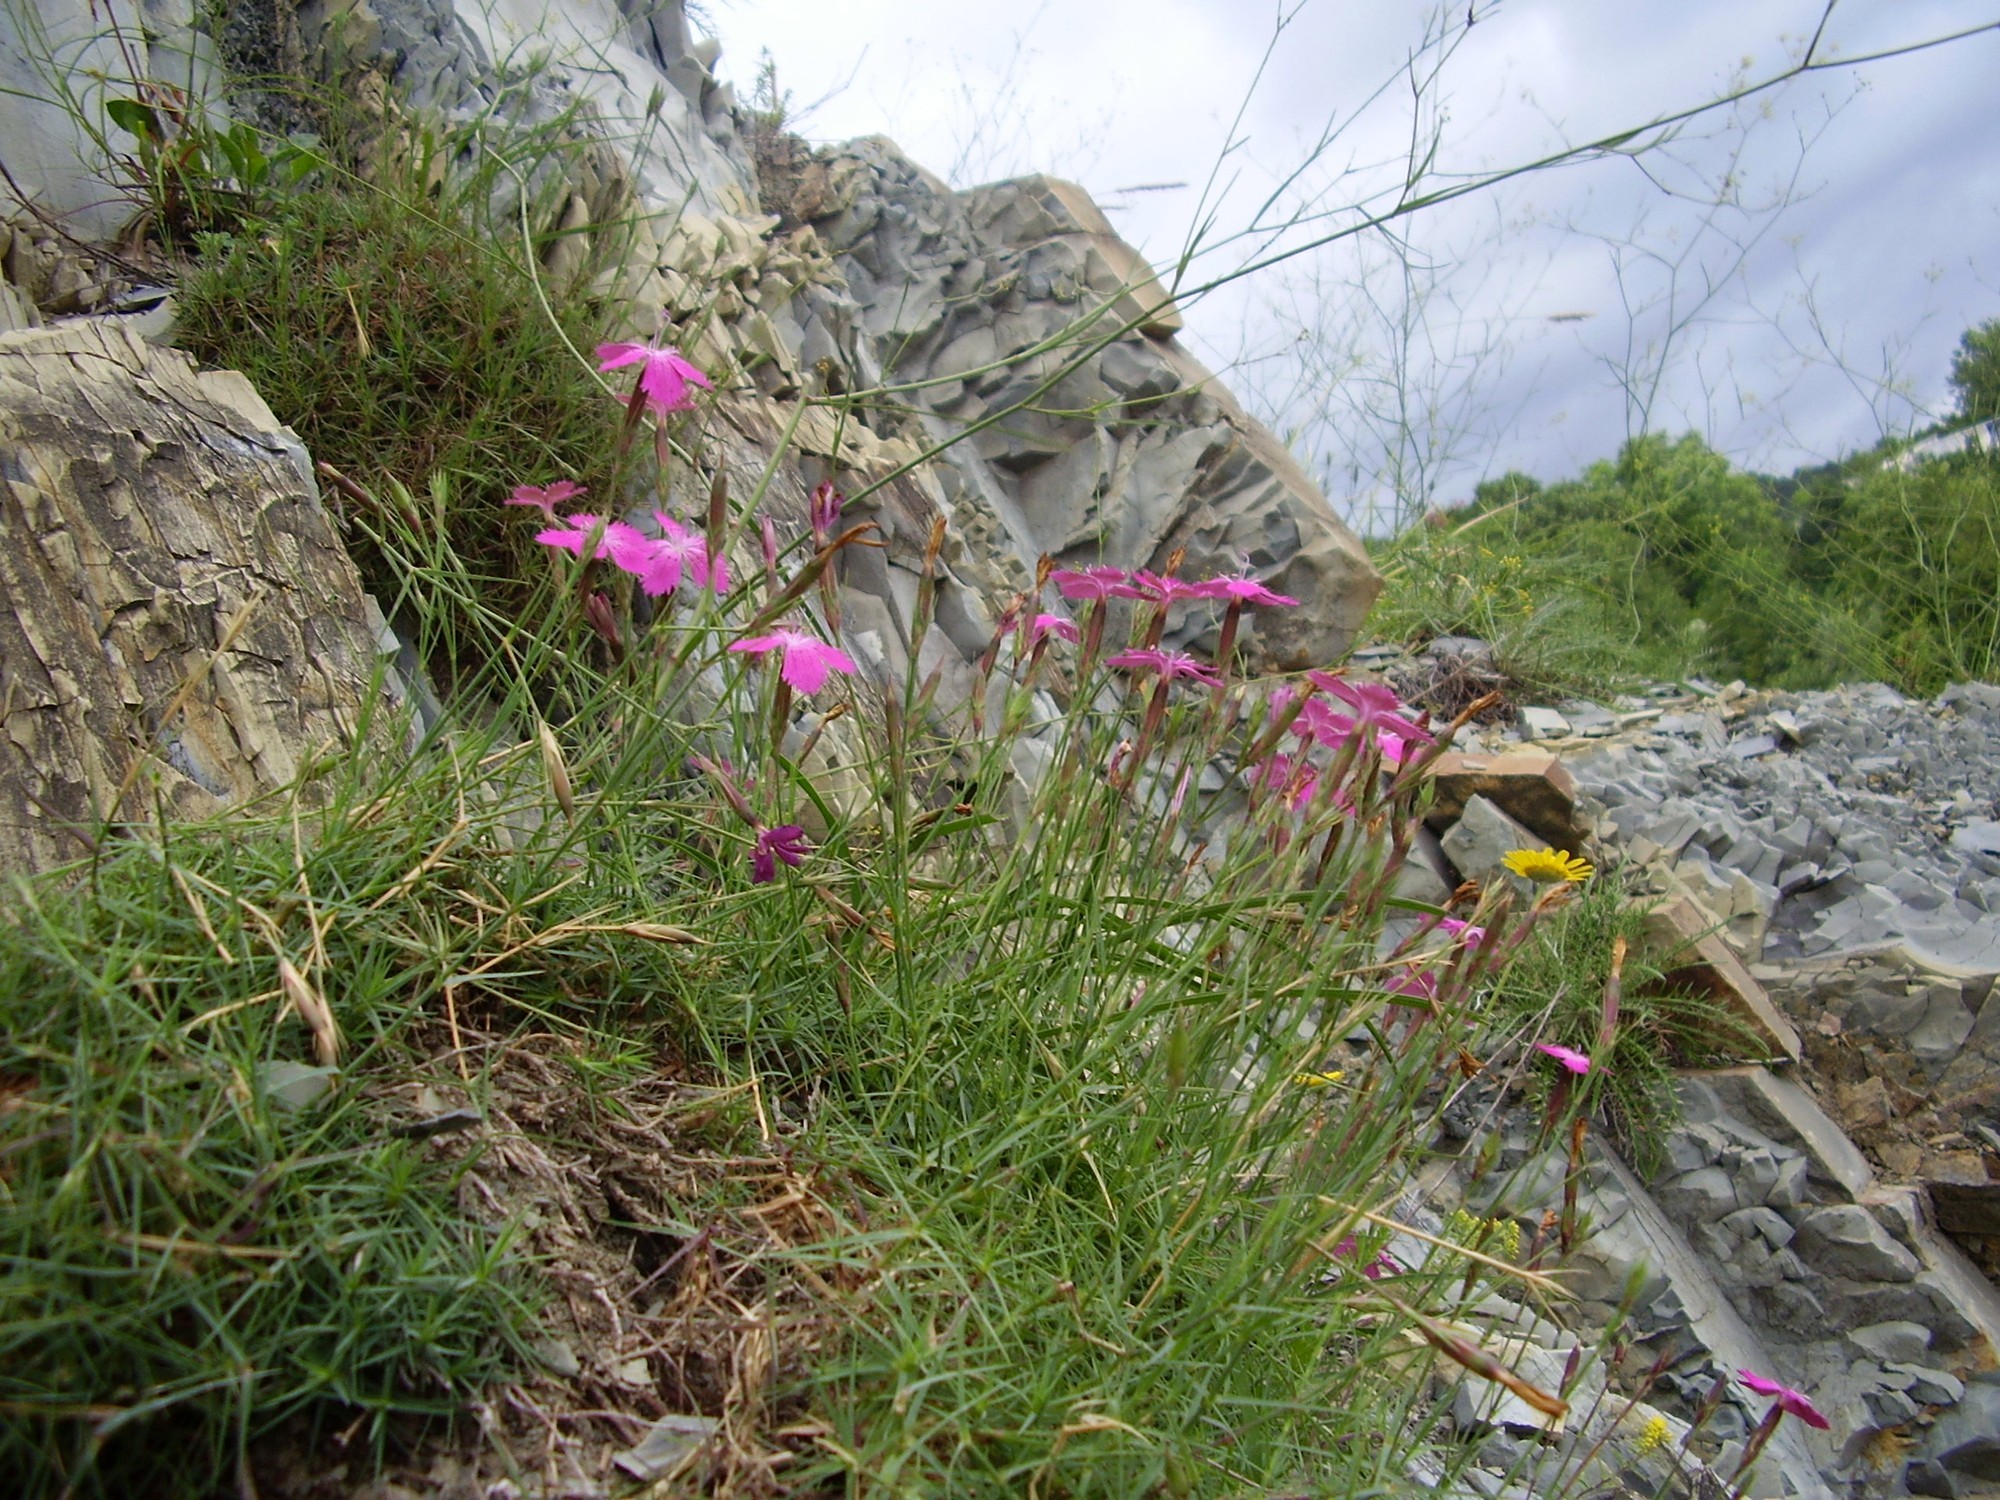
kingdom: Plantae
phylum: Tracheophyta
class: Magnoliopsida
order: Caryophyllales
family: Caryophyllaceae
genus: Dianthus
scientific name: Dianthus acantholimonoides
